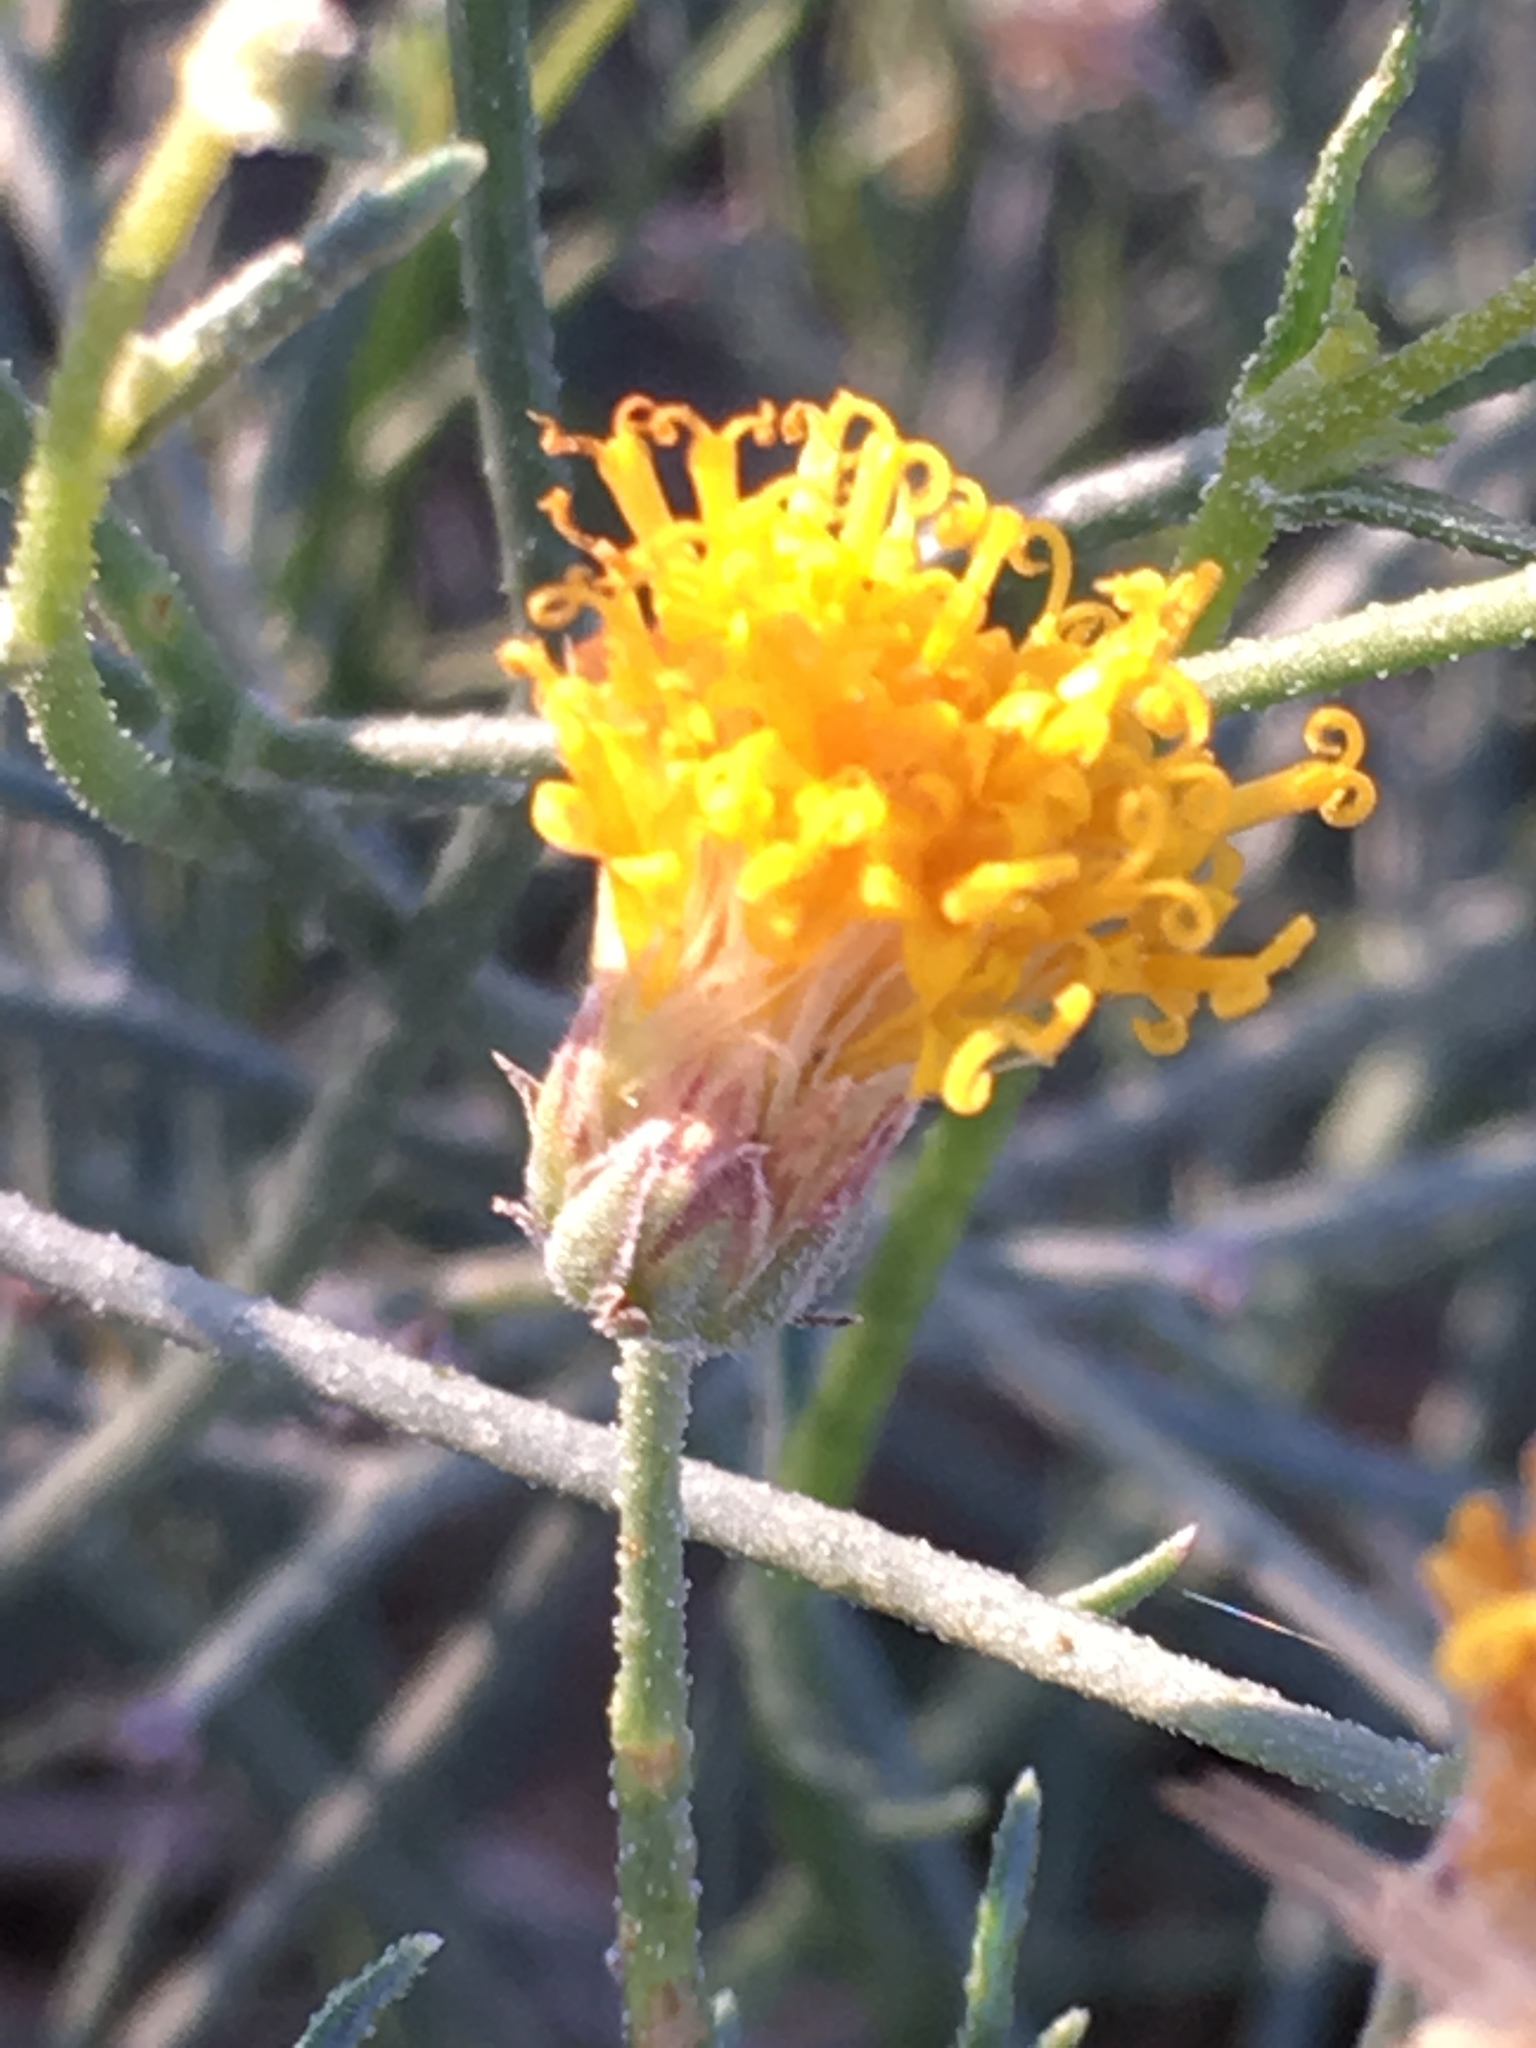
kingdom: Plantae
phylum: Tracheophyta
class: Magnoliopsida
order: Asterales
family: Asteraceae
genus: Bebbia
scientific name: Bebbia juncea
